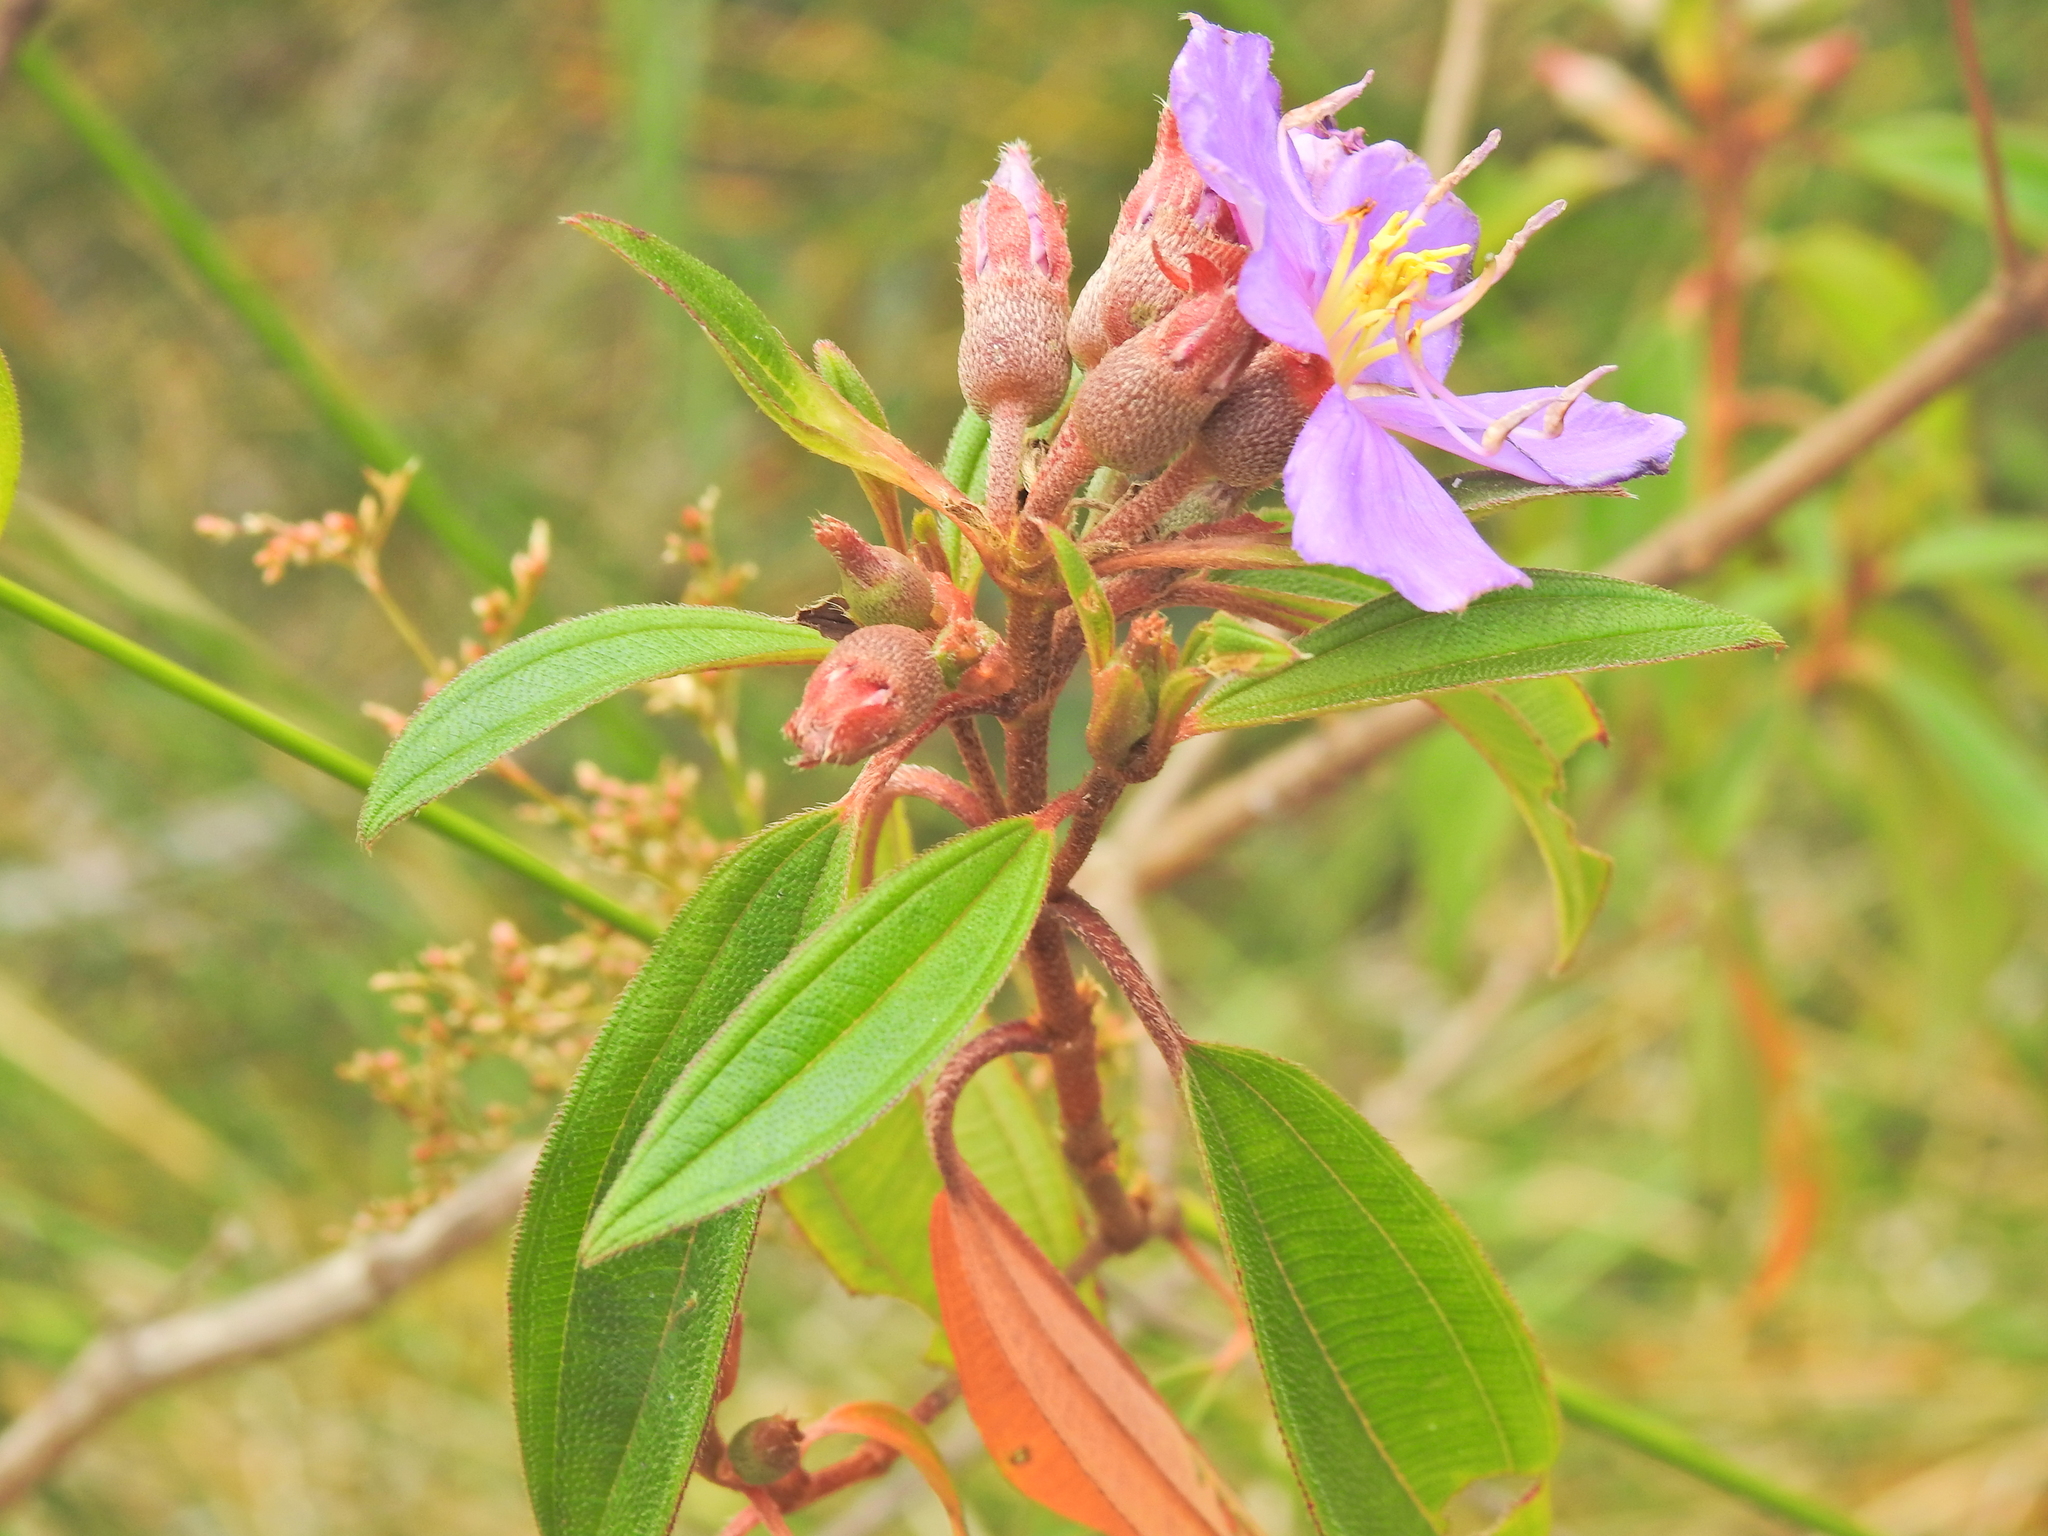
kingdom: Plantae
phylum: Tracheophyta
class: Magnoliopsida
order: Myrtales
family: Melastomataceae
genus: Melastoma
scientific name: Melastoma malabathricum
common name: Indian-rhododendron
